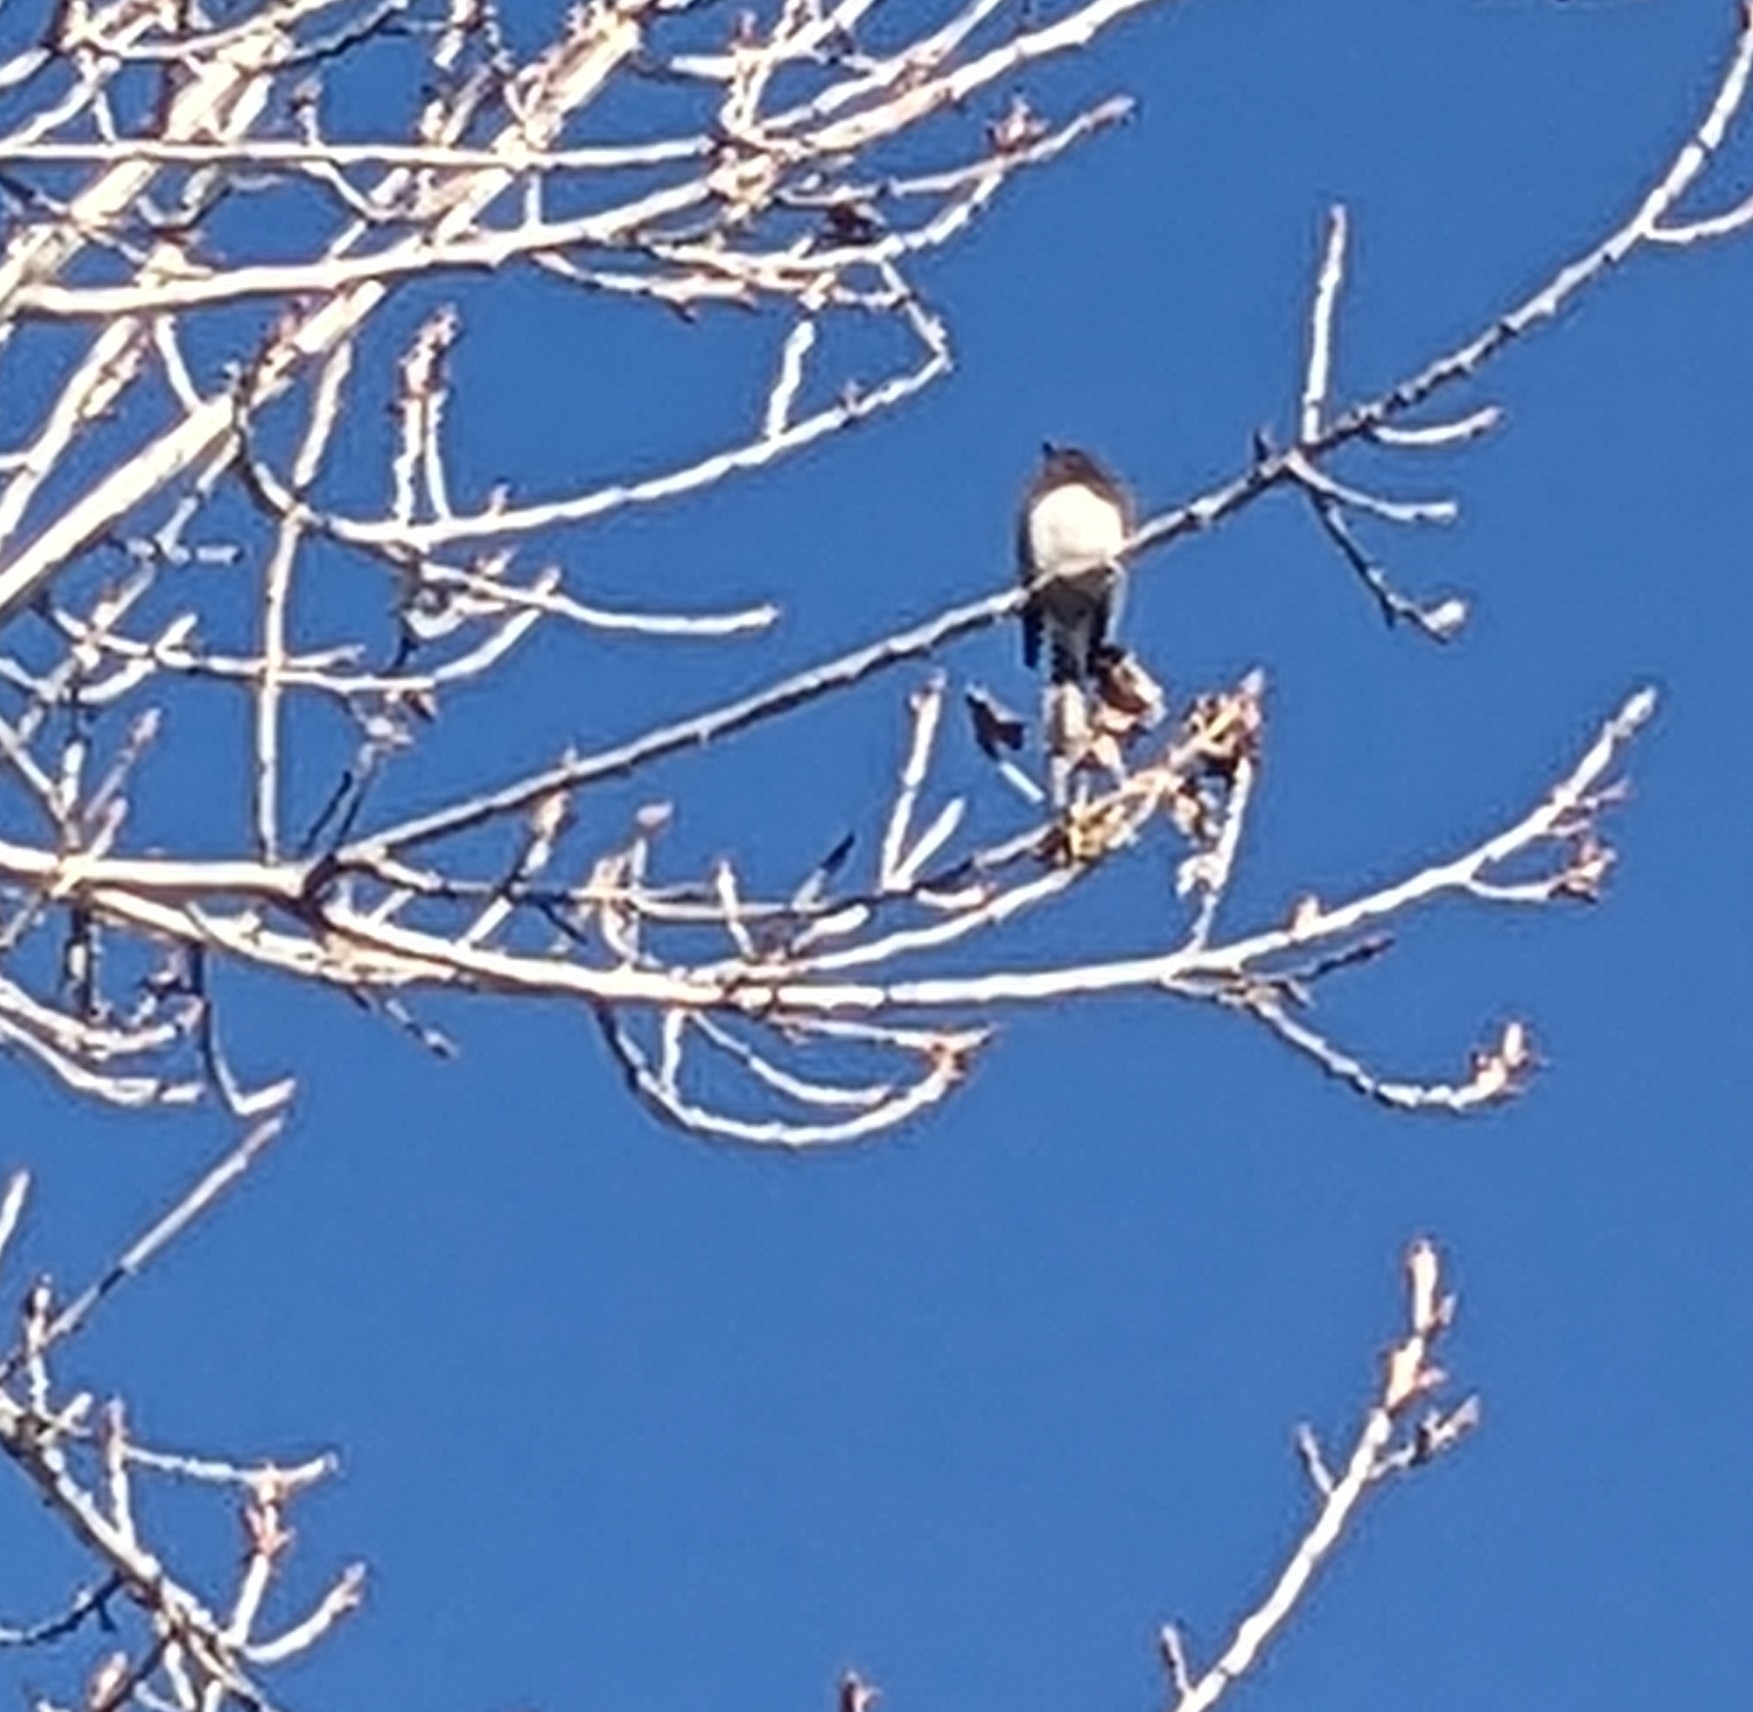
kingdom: Animalia
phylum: Chordata
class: Aves
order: Passeriformes
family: Tyrannidae
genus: Sayornis
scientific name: Sayornis nigricans
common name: Black phoebe
